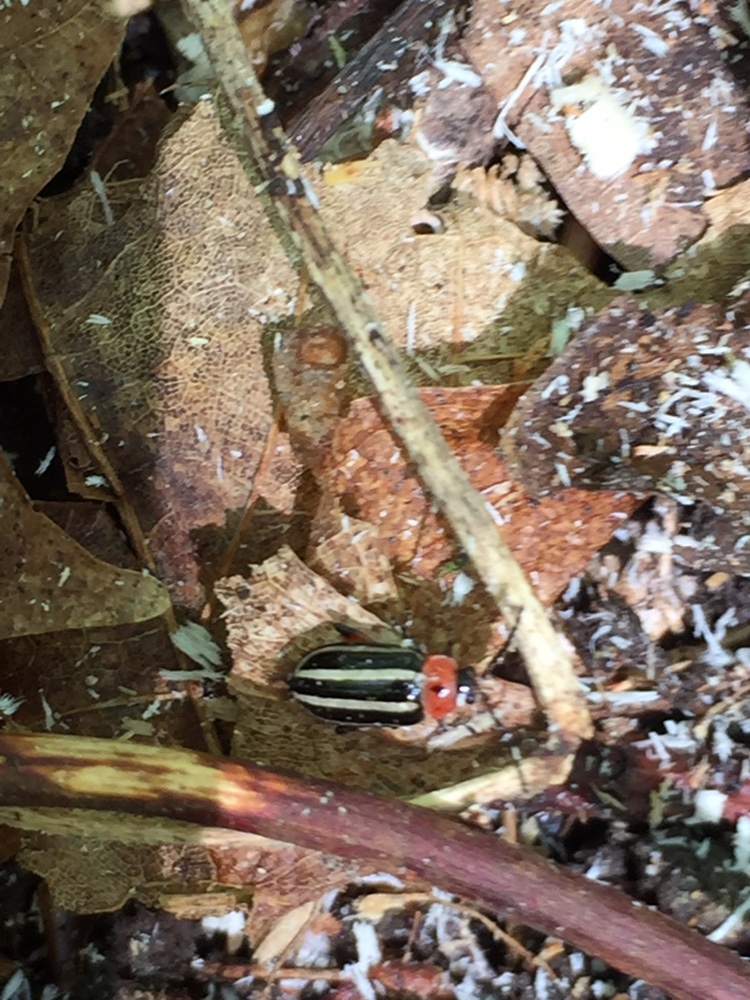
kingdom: Animalia
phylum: Arthropoda
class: Insecta
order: Coleoptera
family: Chrysomelidae
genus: Disonycha
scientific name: Disonycha glabrata
